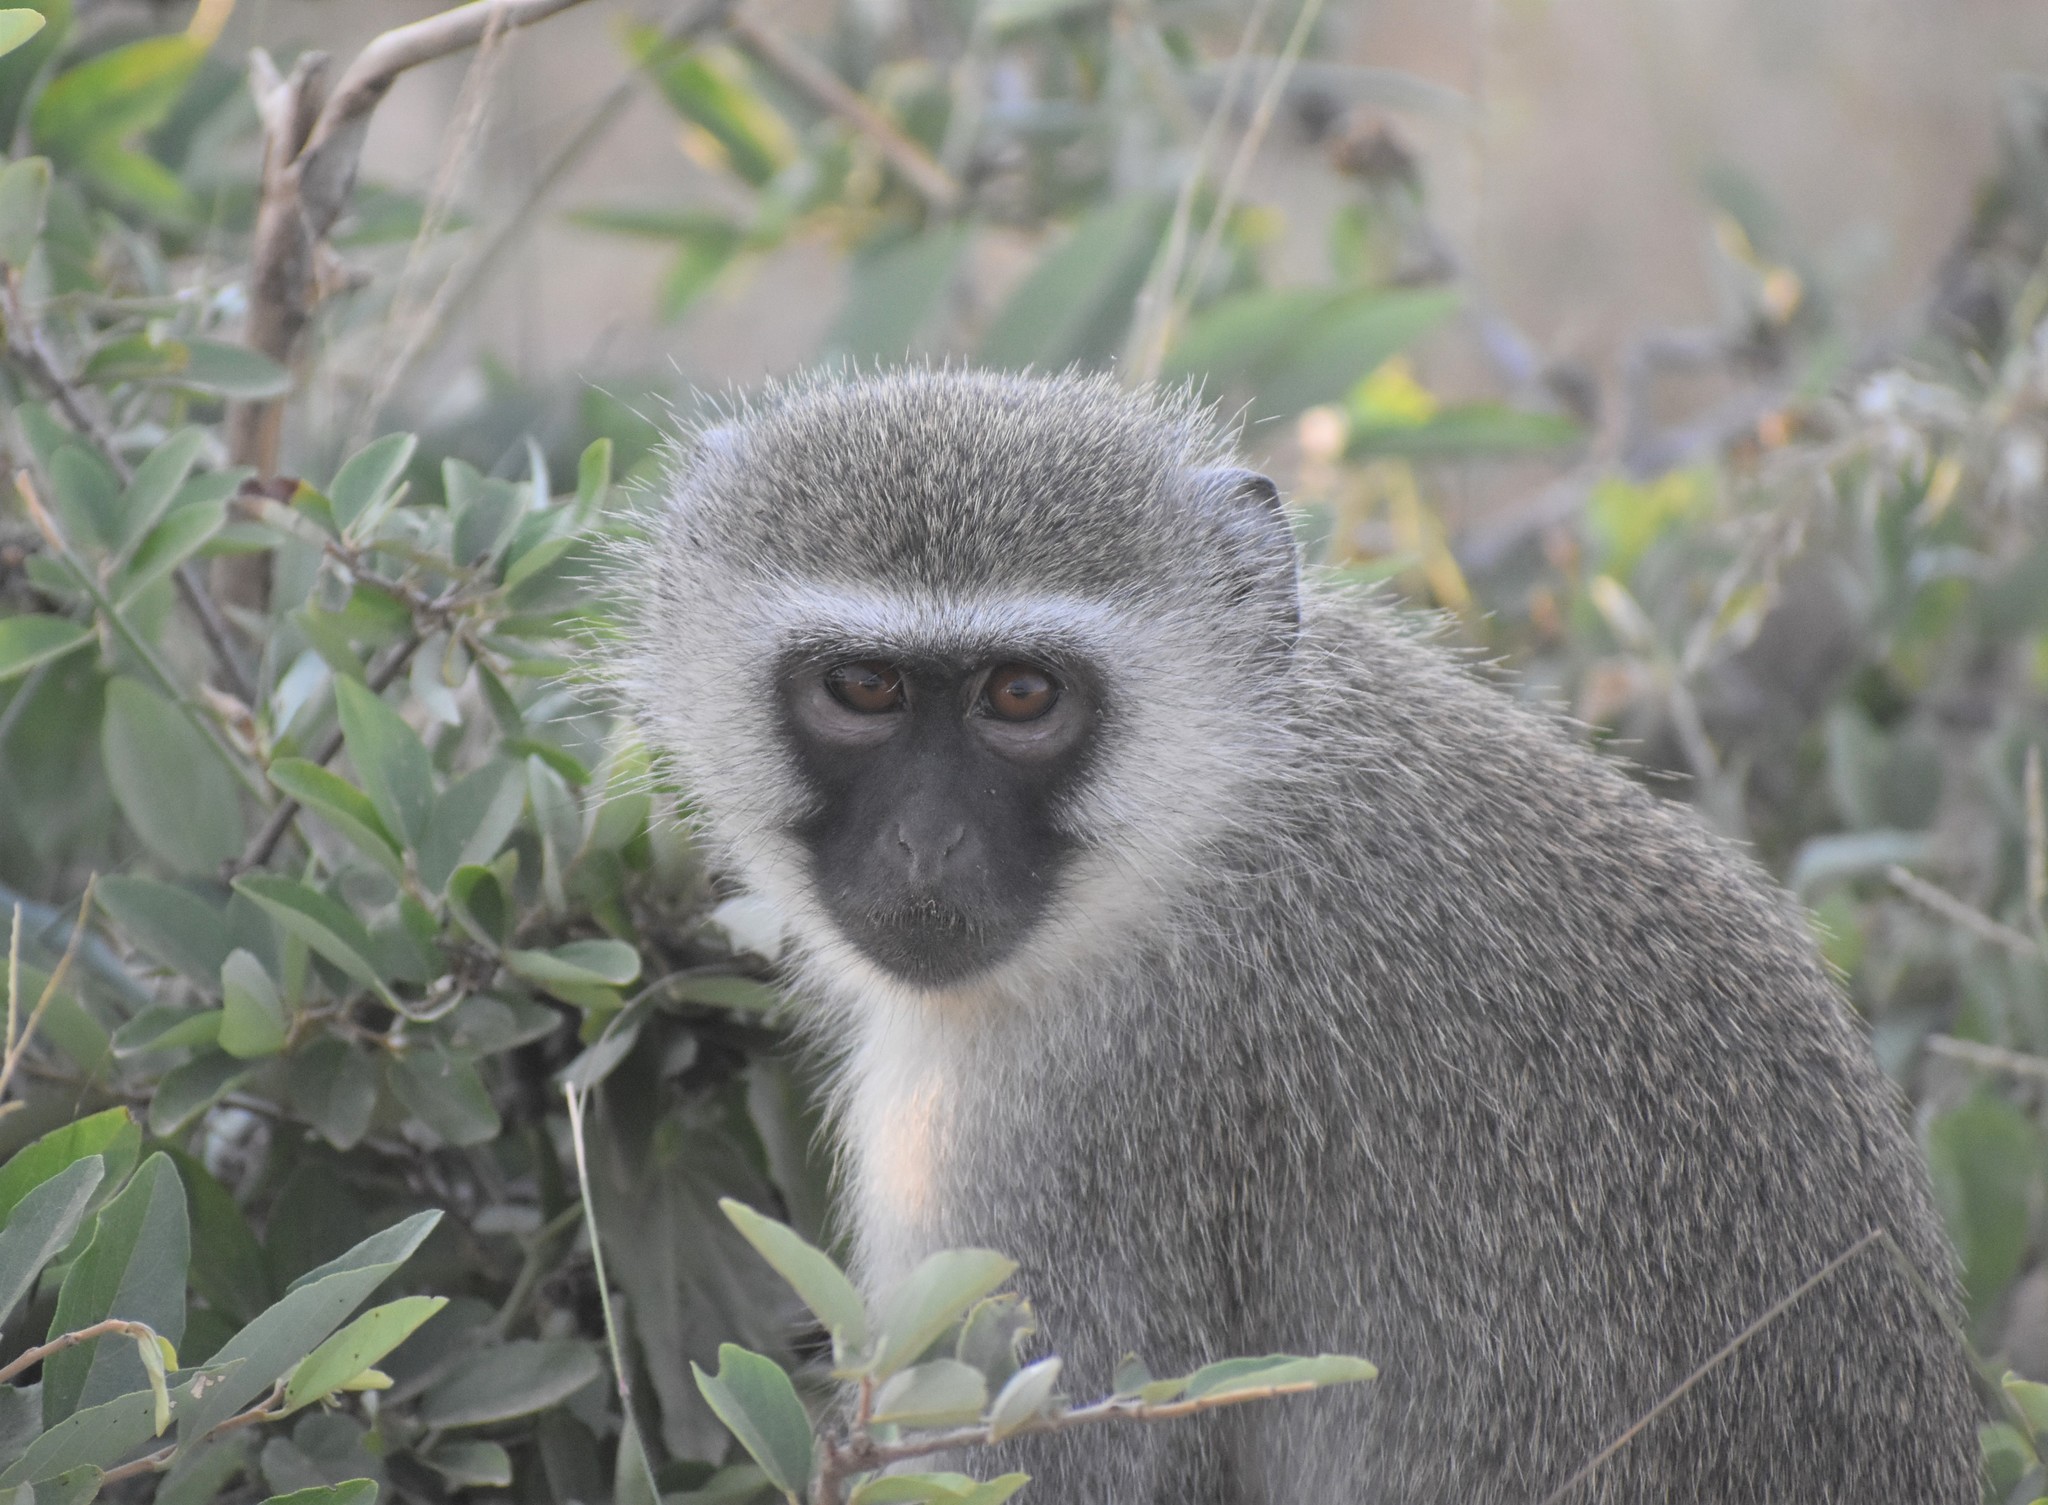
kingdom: Animalia
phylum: Chordata
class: Mammalia
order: Primates
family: Cercopithecidae
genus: Chlorocebus
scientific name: Chlorocebus pygerythrus
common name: Vervet monkey
